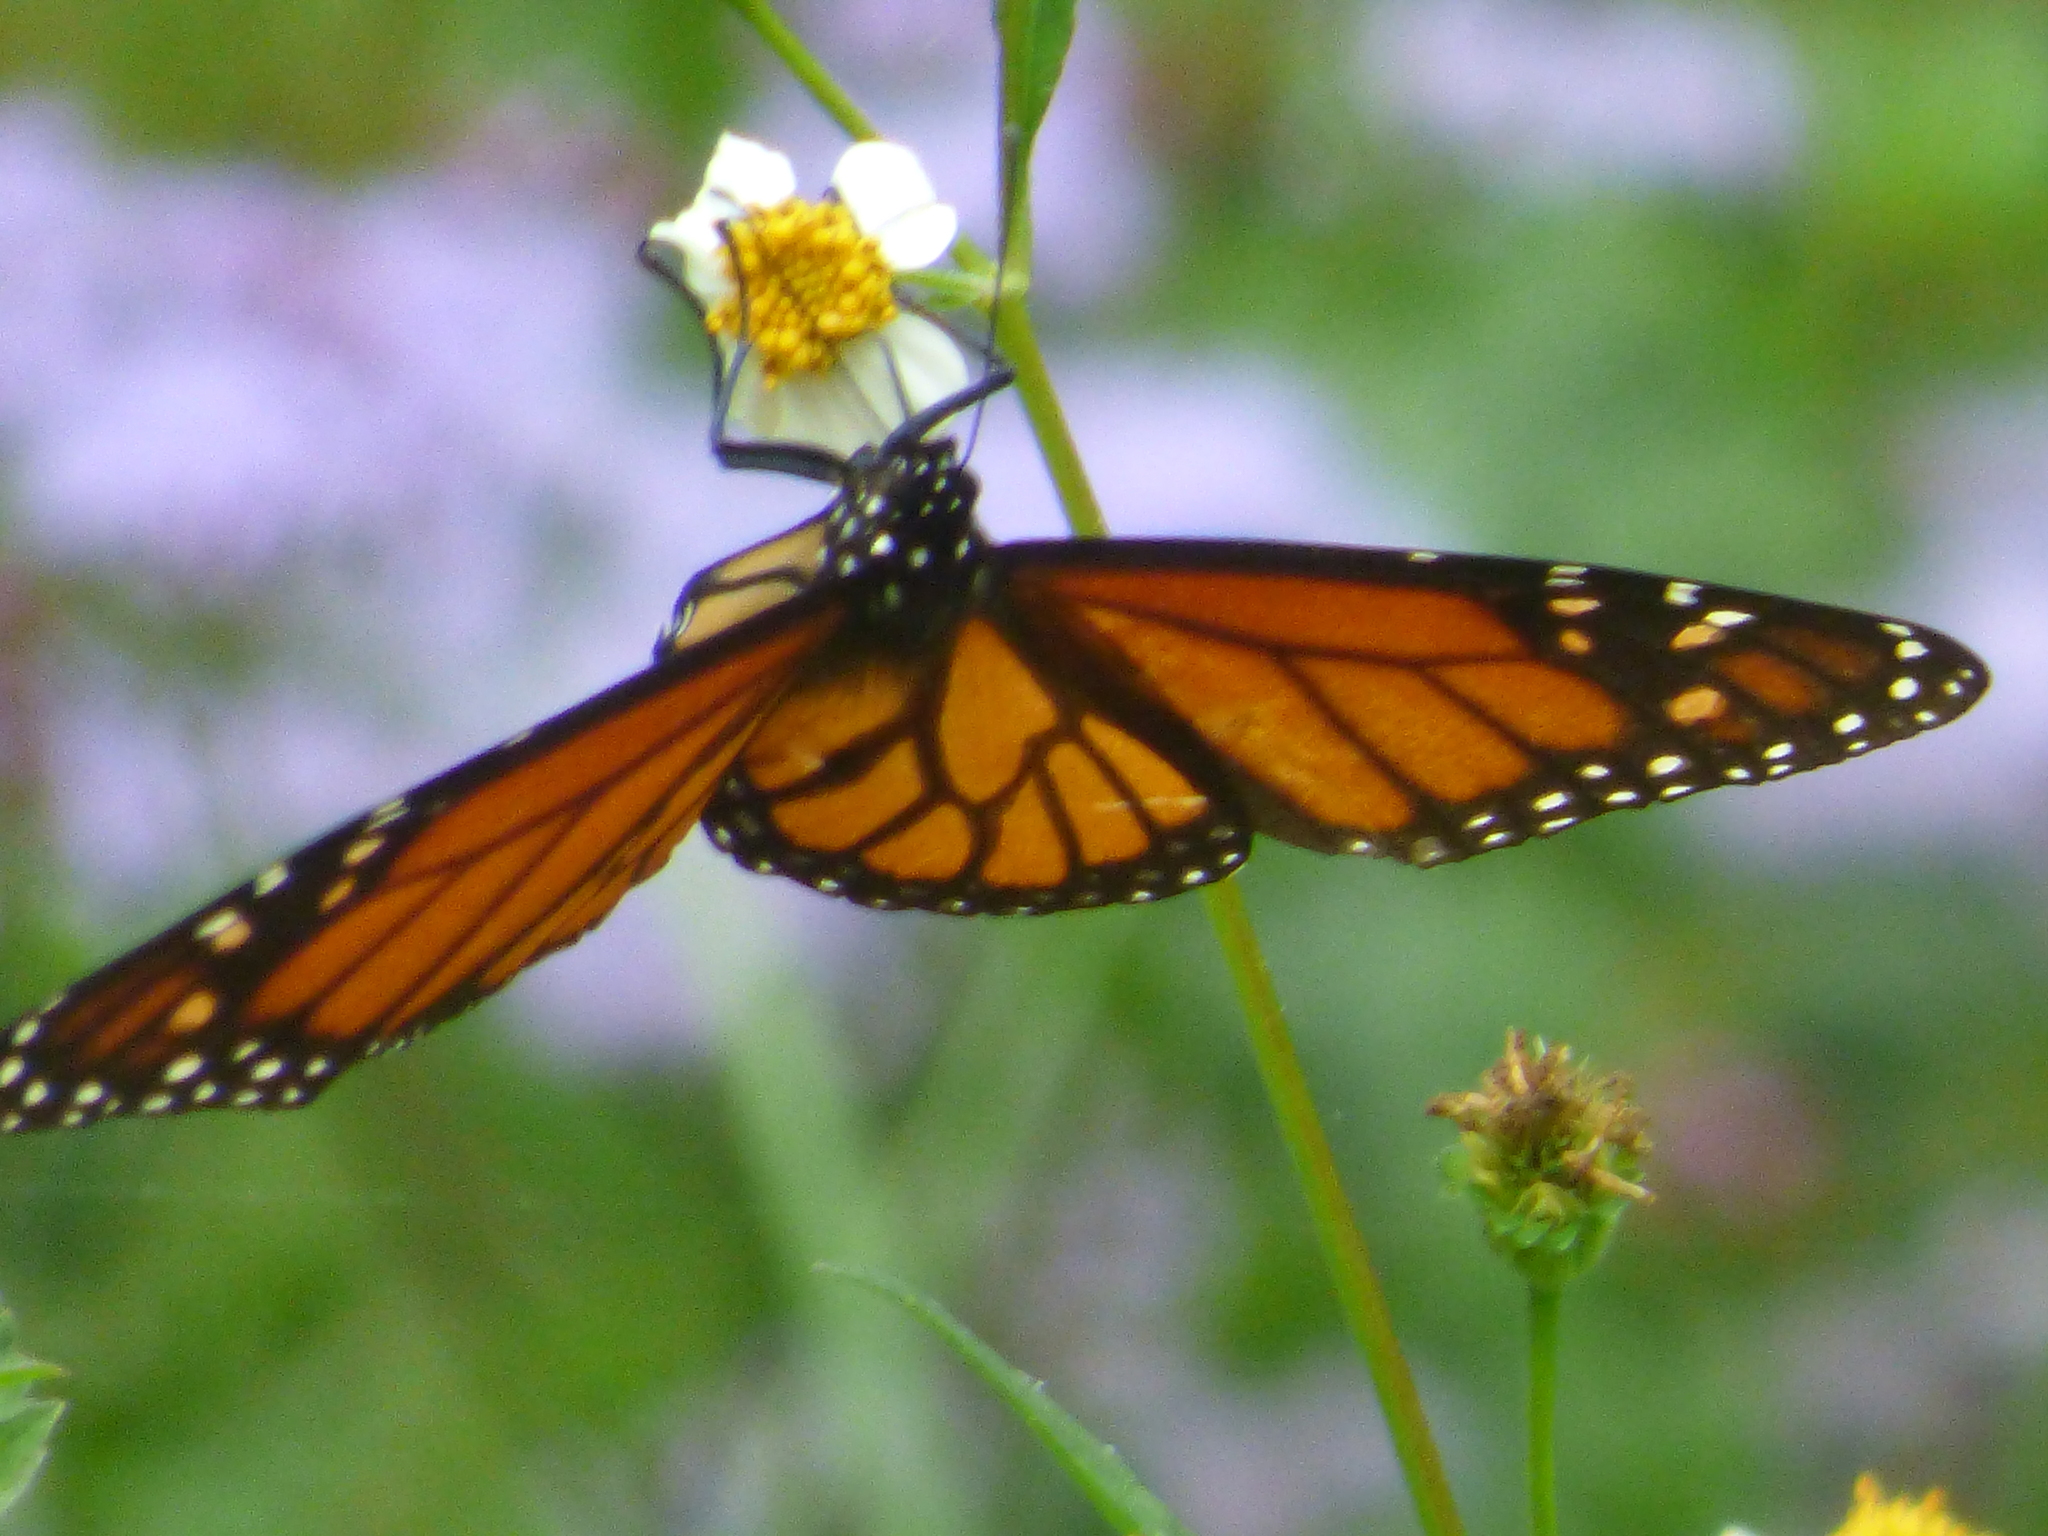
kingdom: Animalia
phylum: Arthropoda
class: Insecta
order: Lepidoptera
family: Nymphalidae
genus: Danaus
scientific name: Danaus plexippus
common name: Monarch
